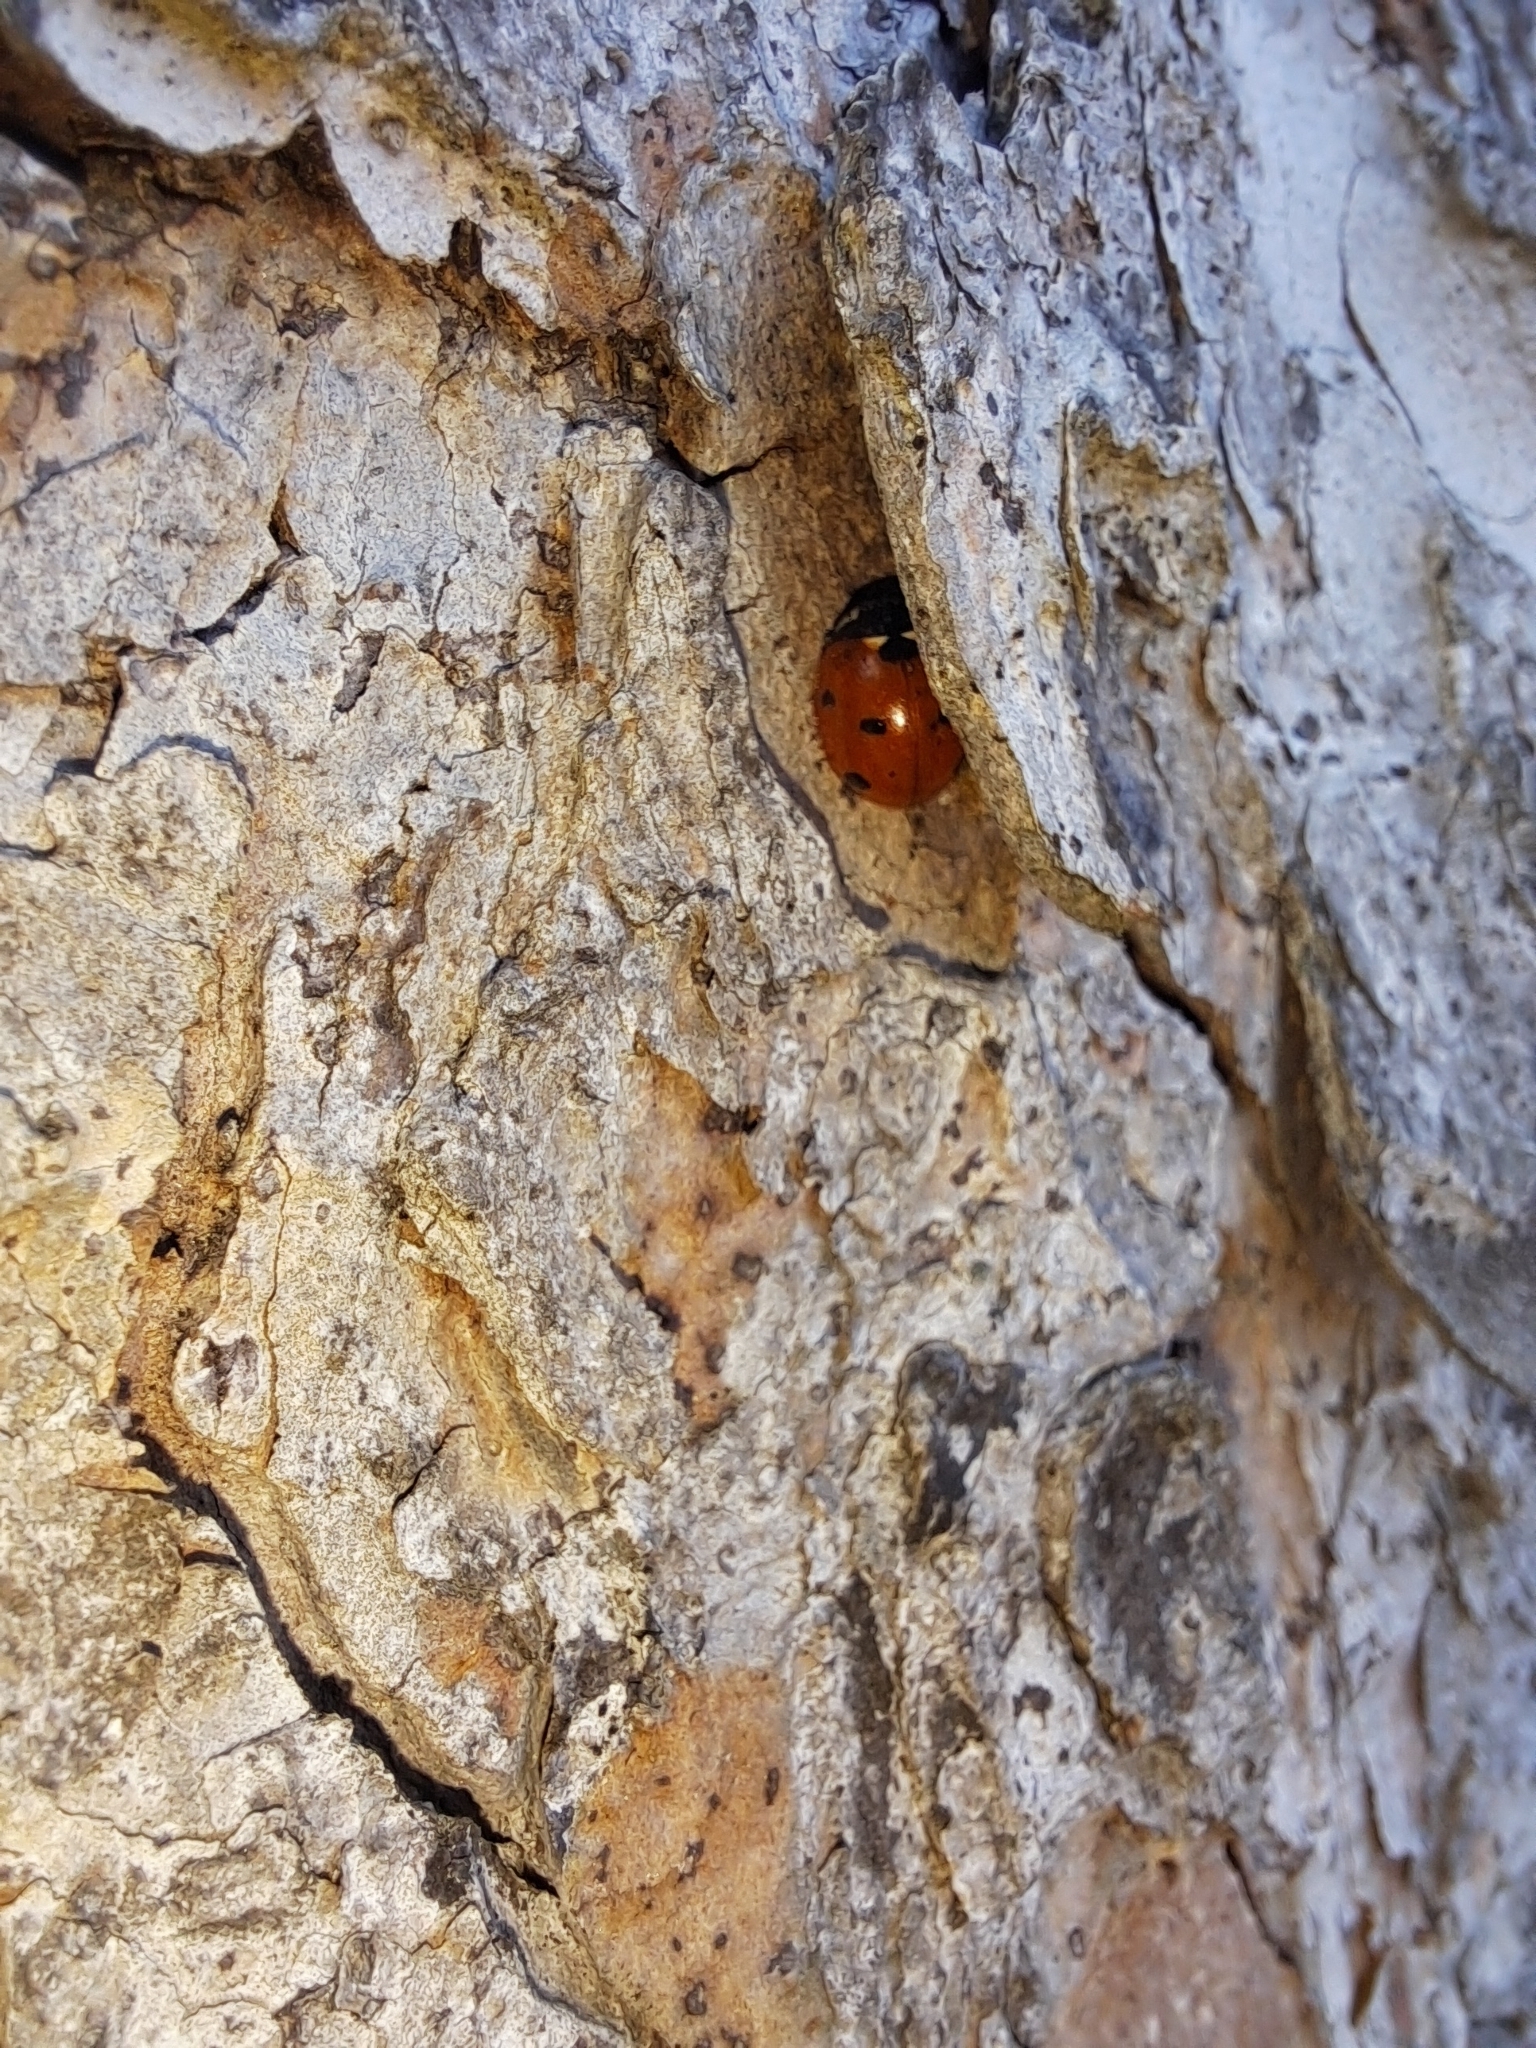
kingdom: Animalia
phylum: Arthropoda
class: Insecta
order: Coleoptera
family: Coccinellidae
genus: Coccinella
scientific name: Coccinella septempunctata
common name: Sevenspotted lady beetle
